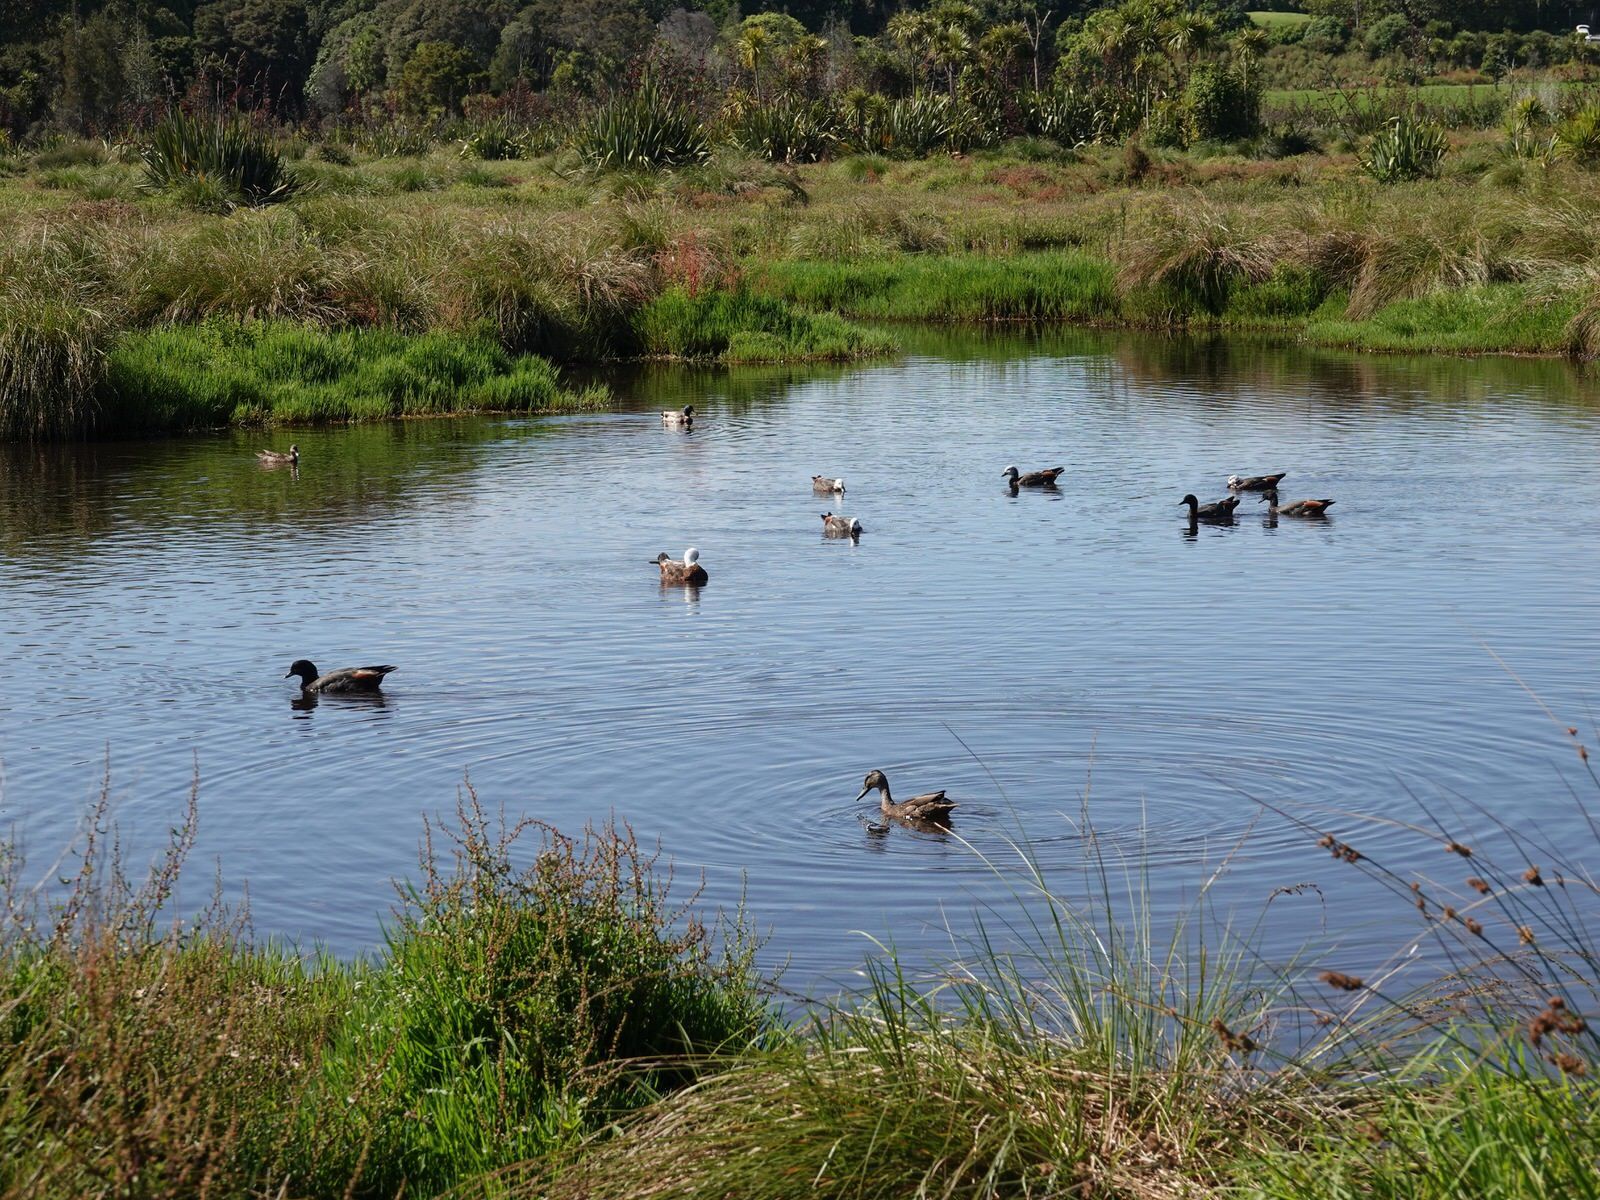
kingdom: Animalia
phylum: Chordata
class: Aves
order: Anseriformes
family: Anatidae
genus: Tadorna
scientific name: Tadorna variegata
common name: Paradise shelduck
